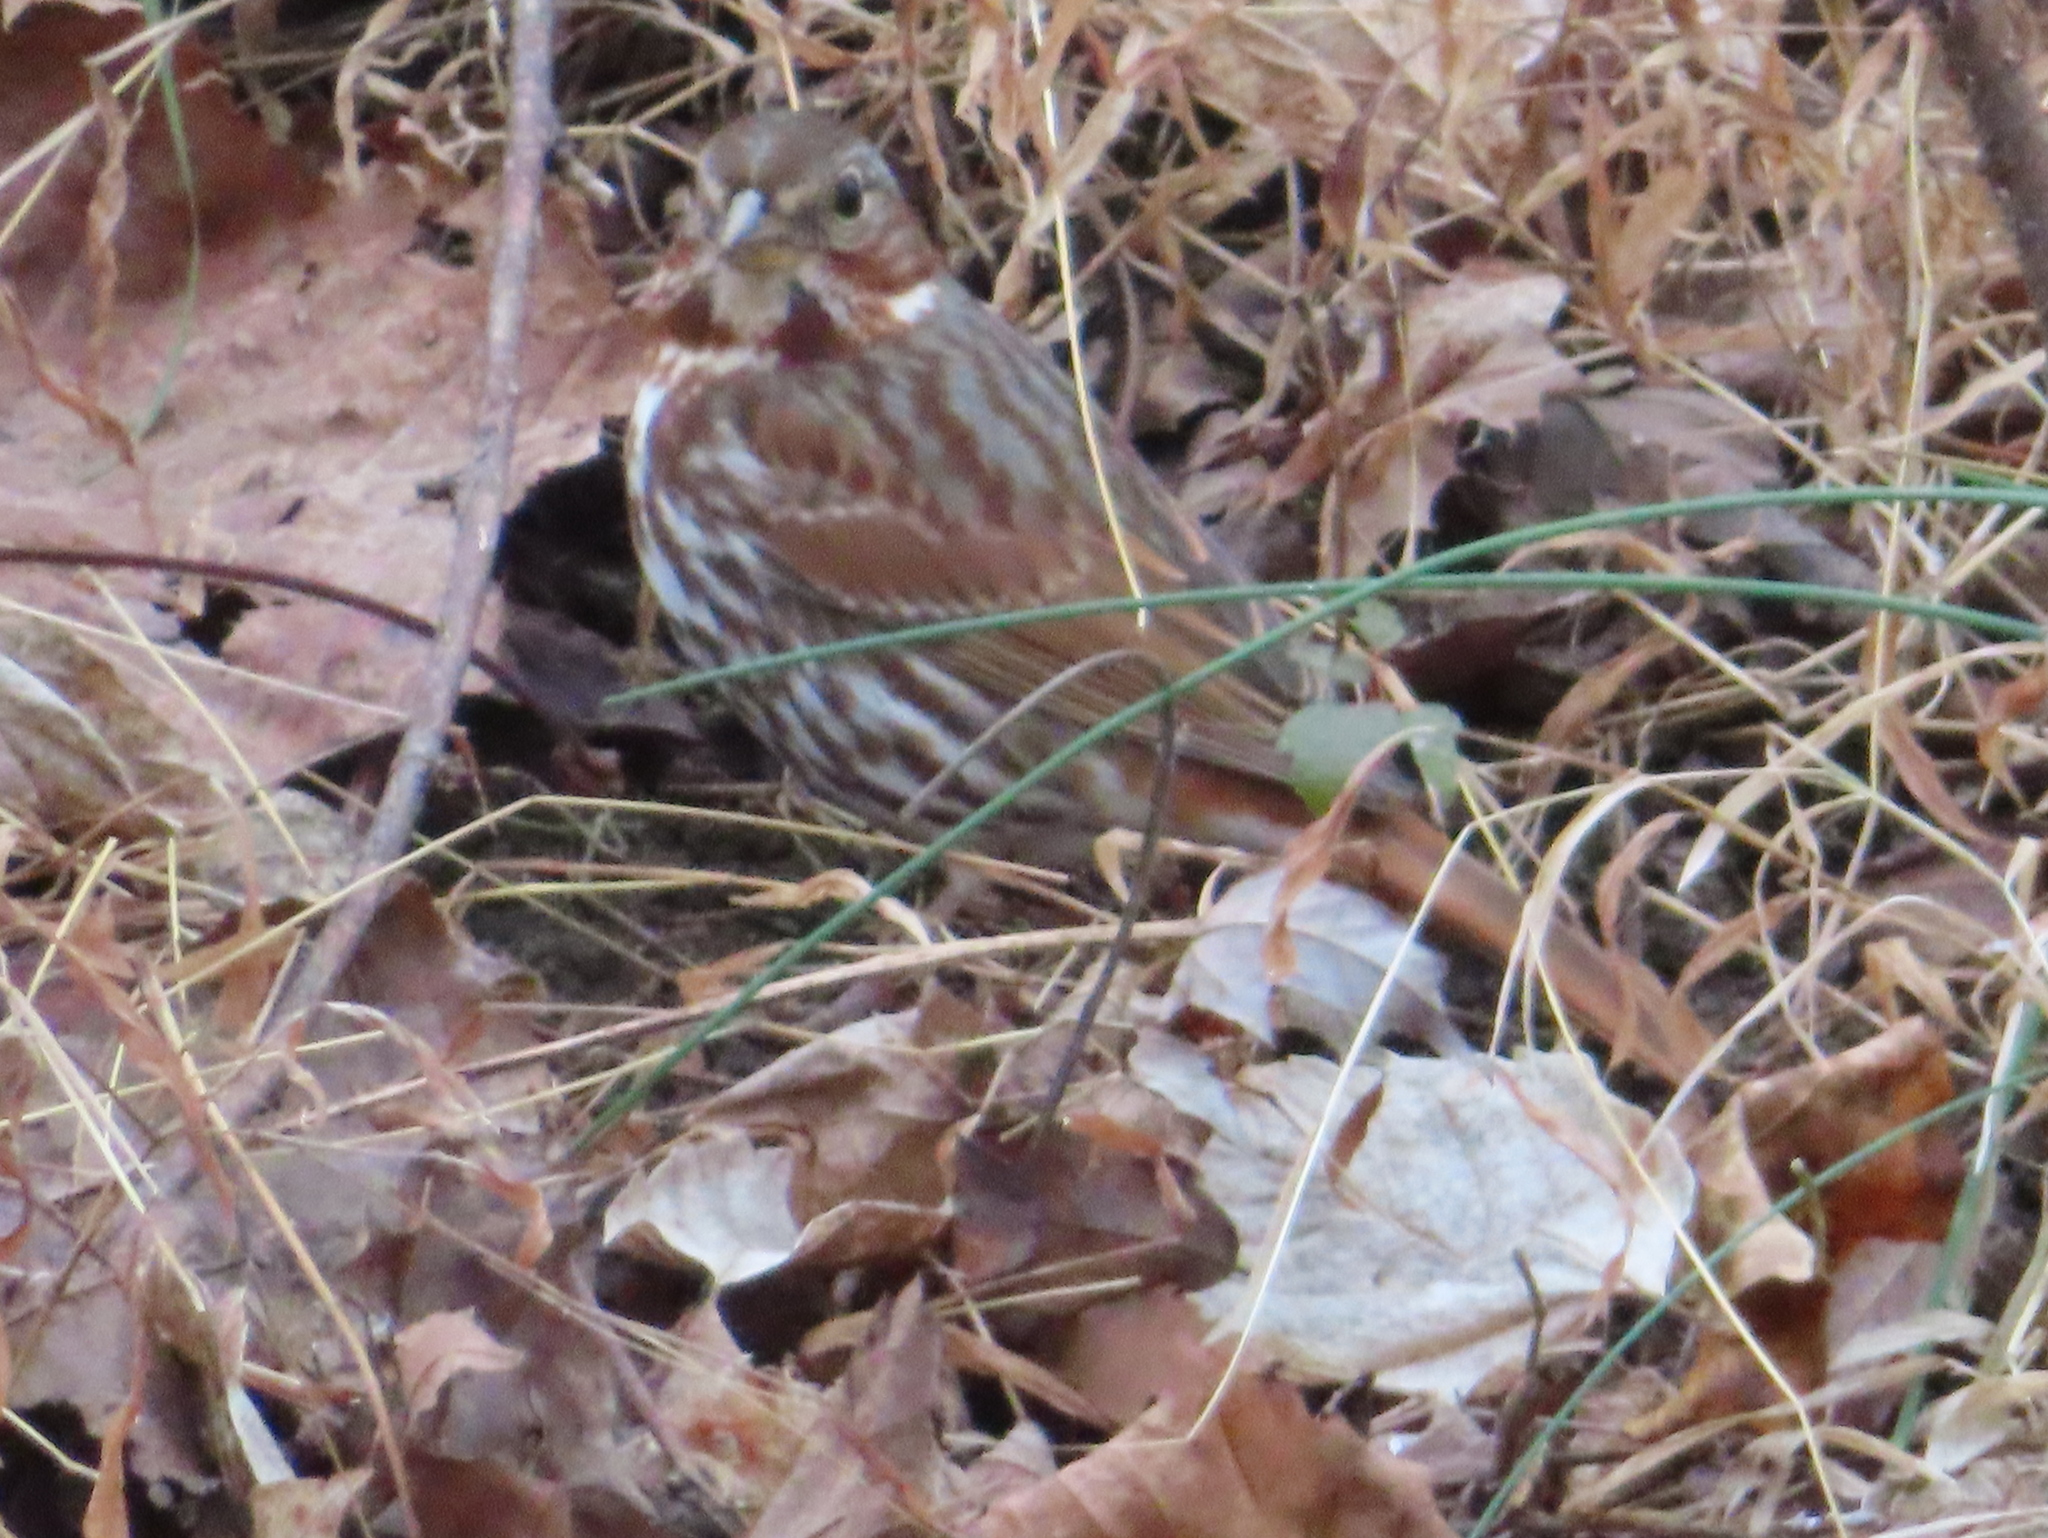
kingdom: Animalia
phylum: Chordata
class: Aves
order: Passeriformes
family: Passerellidae
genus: Passerella
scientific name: Passerella iliaca
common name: Fox sparrow
